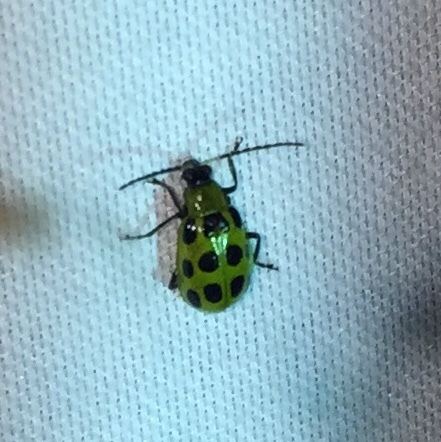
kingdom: Animalia
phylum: Arthropoda
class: Insecta
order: Coleoptera
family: Chrysomelidae
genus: Diabrotica
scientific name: Diabrotica undecimpunctata
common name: Spotted cucumber beetle
